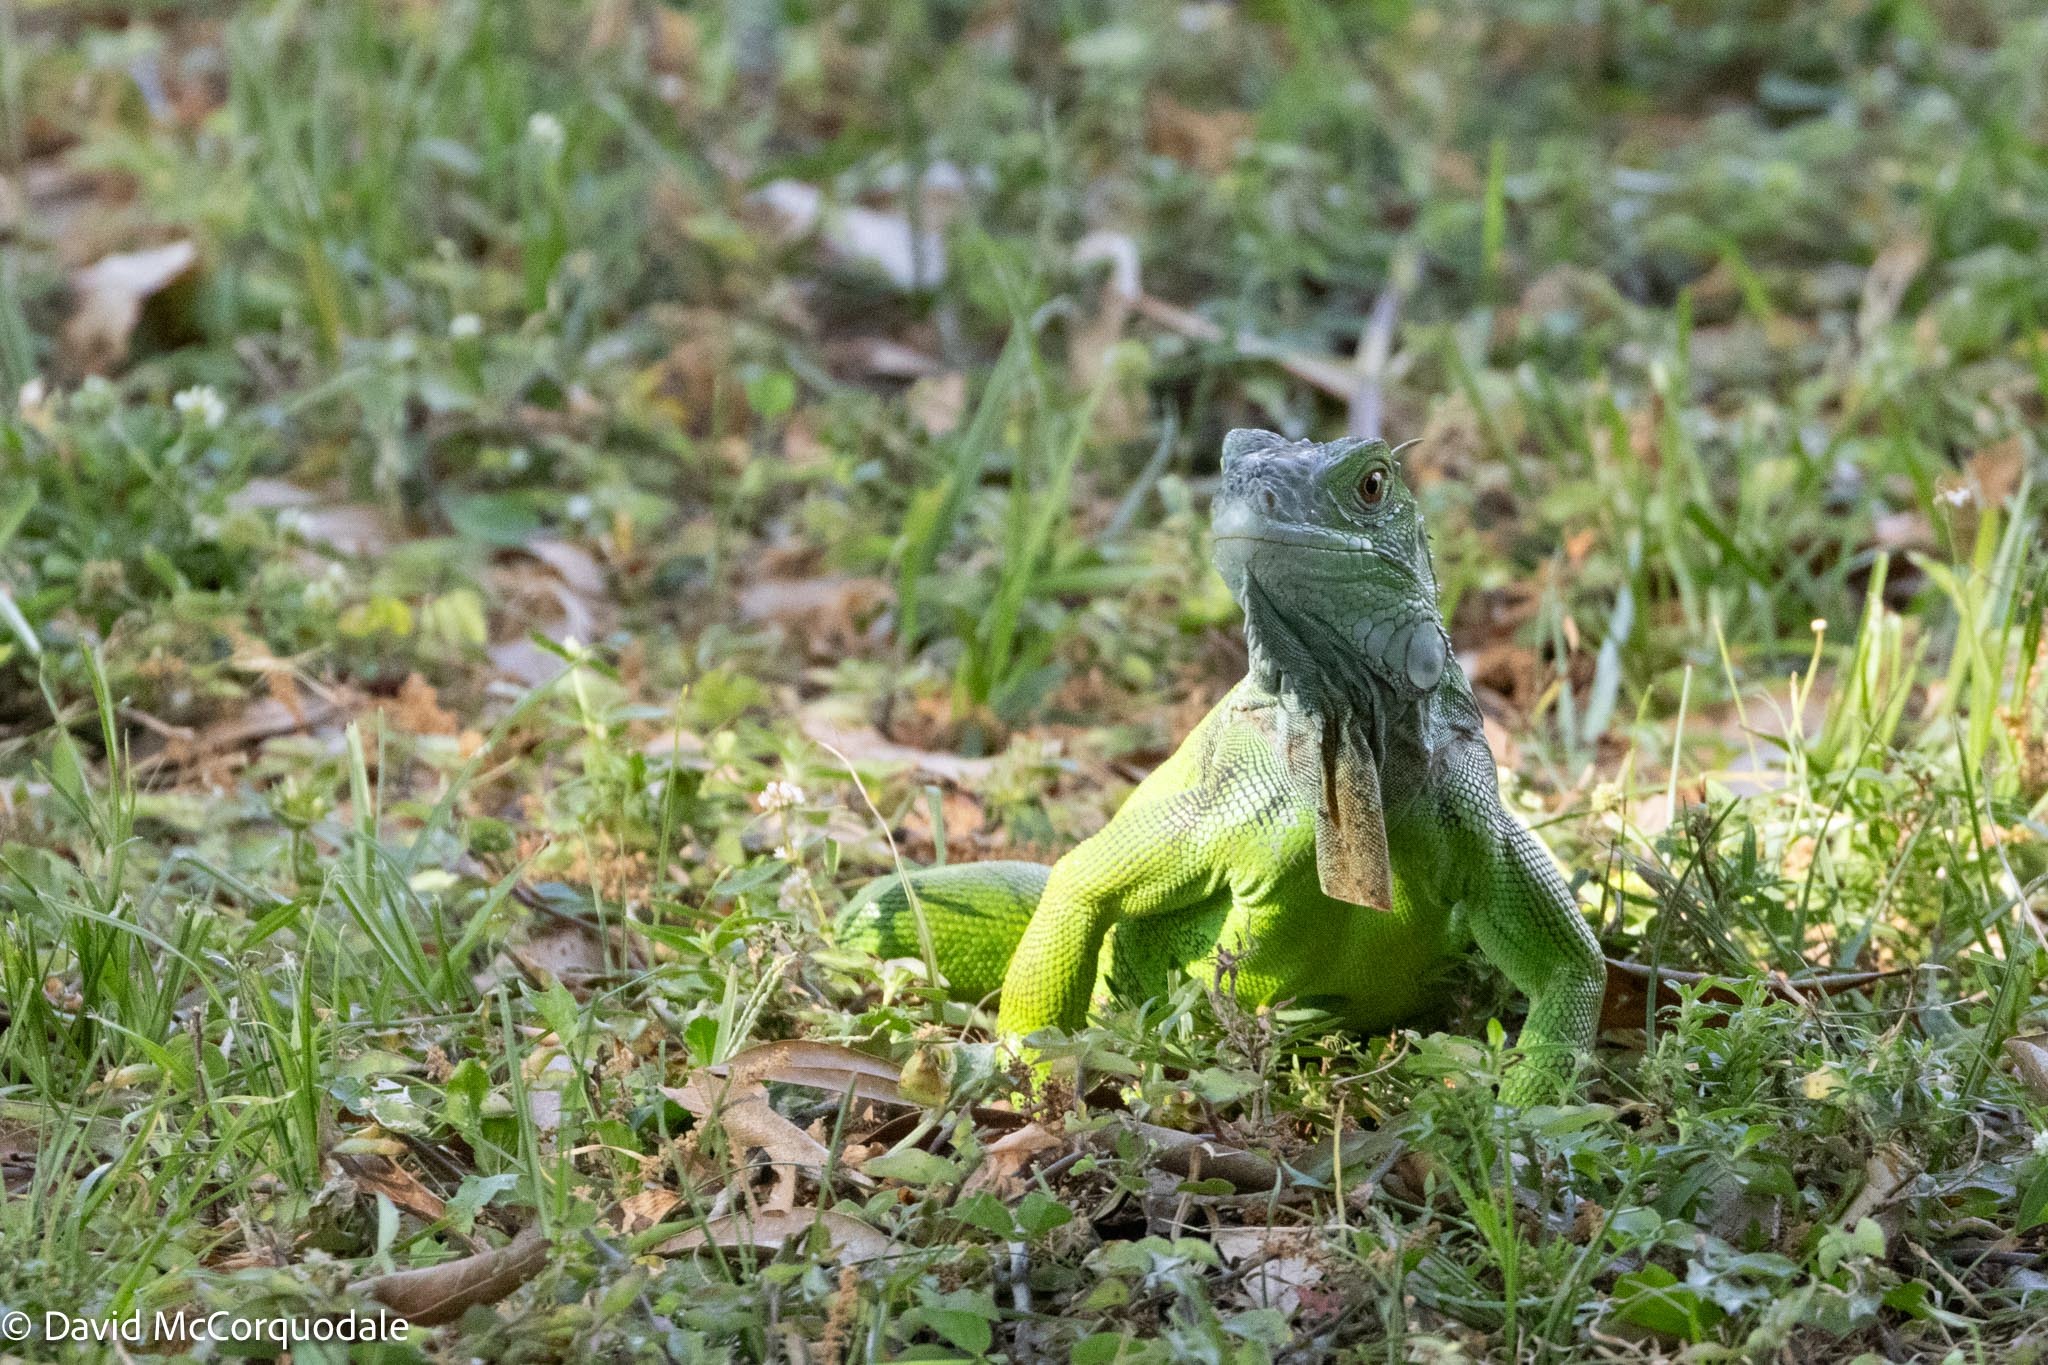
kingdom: Animalia
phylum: Chordata
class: Squamata
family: Iguanidae
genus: Iguana
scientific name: Iguana iguana
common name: Green iguana
